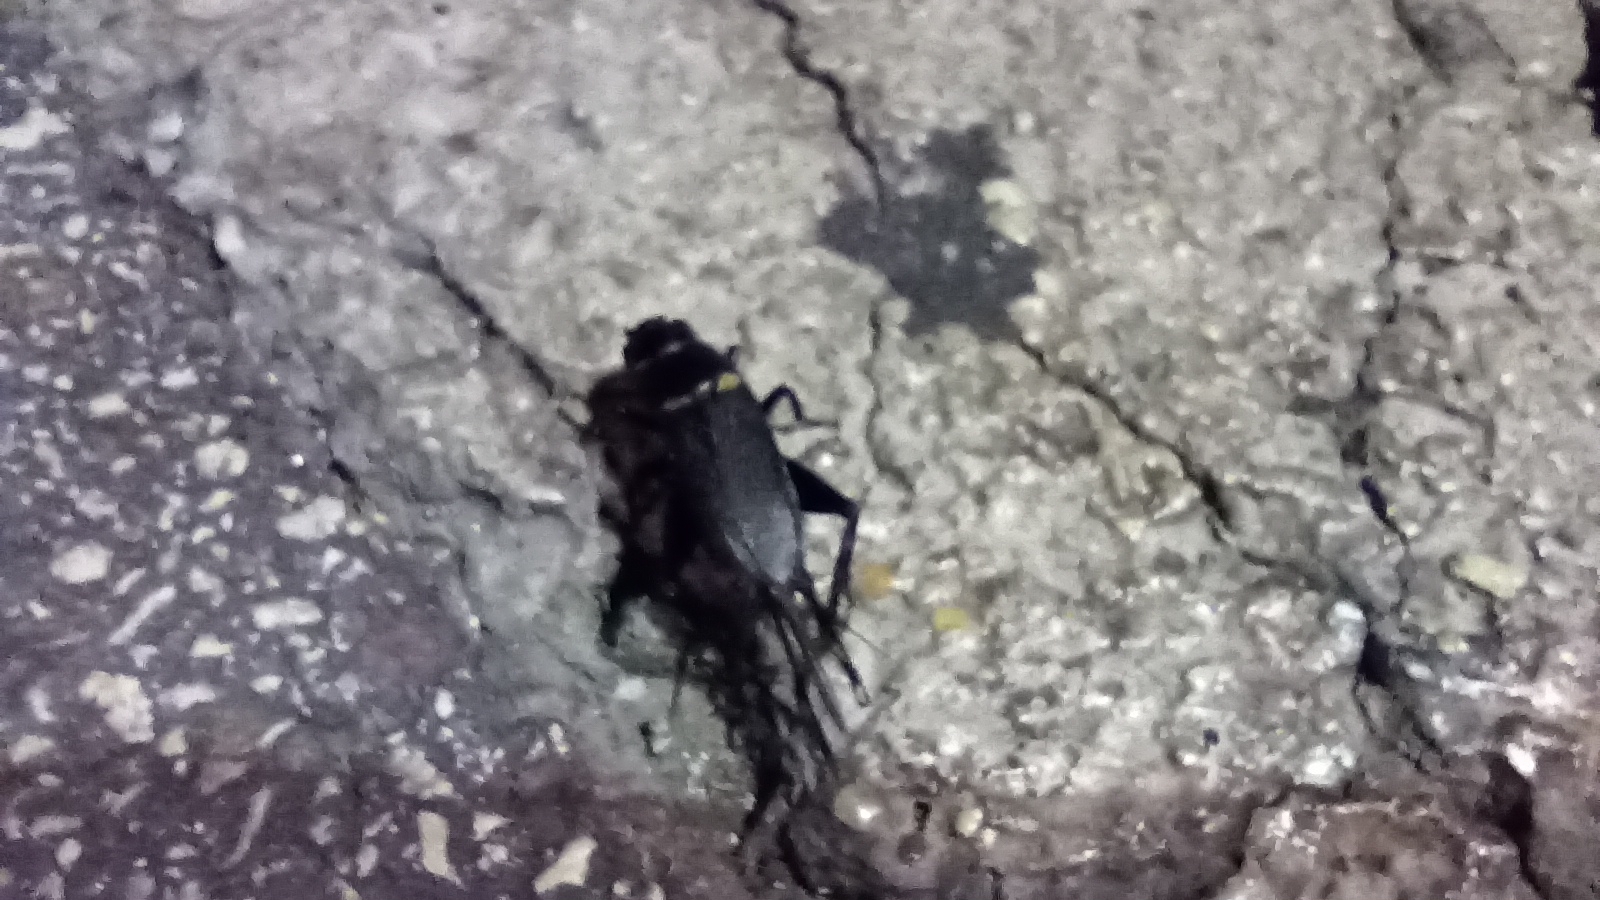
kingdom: Animalia
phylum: Arthropoda
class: Insecta
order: Orthoptera
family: Gryllidae
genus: Gryllus
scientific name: Gryllus bimaculatus
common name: Two-spotted cricket
